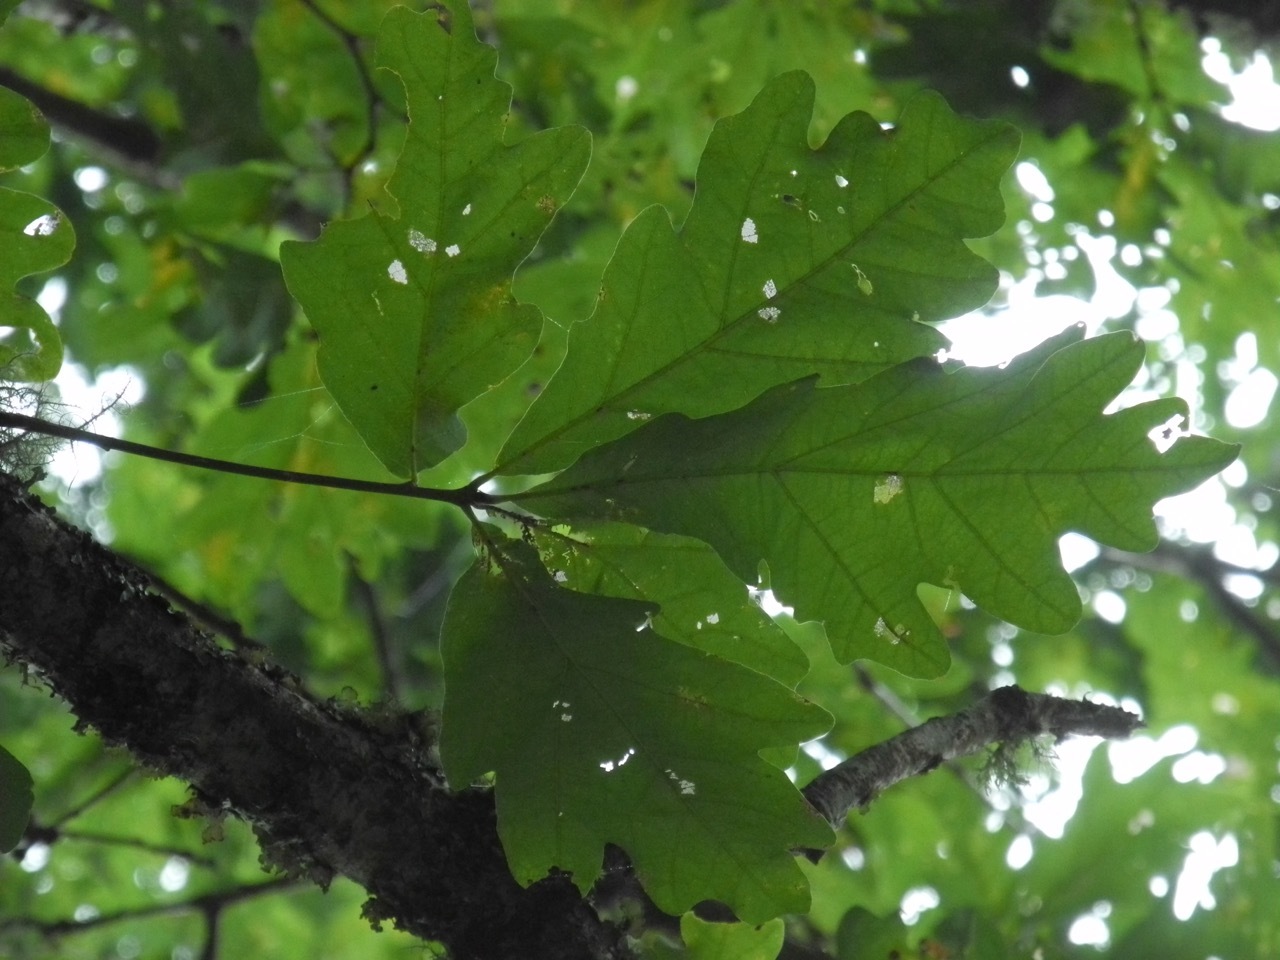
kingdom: Plantae
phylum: Tracheophyta
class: Magnoliopsida
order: Fagales
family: Fagaceae
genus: Quercus
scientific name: Quercus alba
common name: White oak
